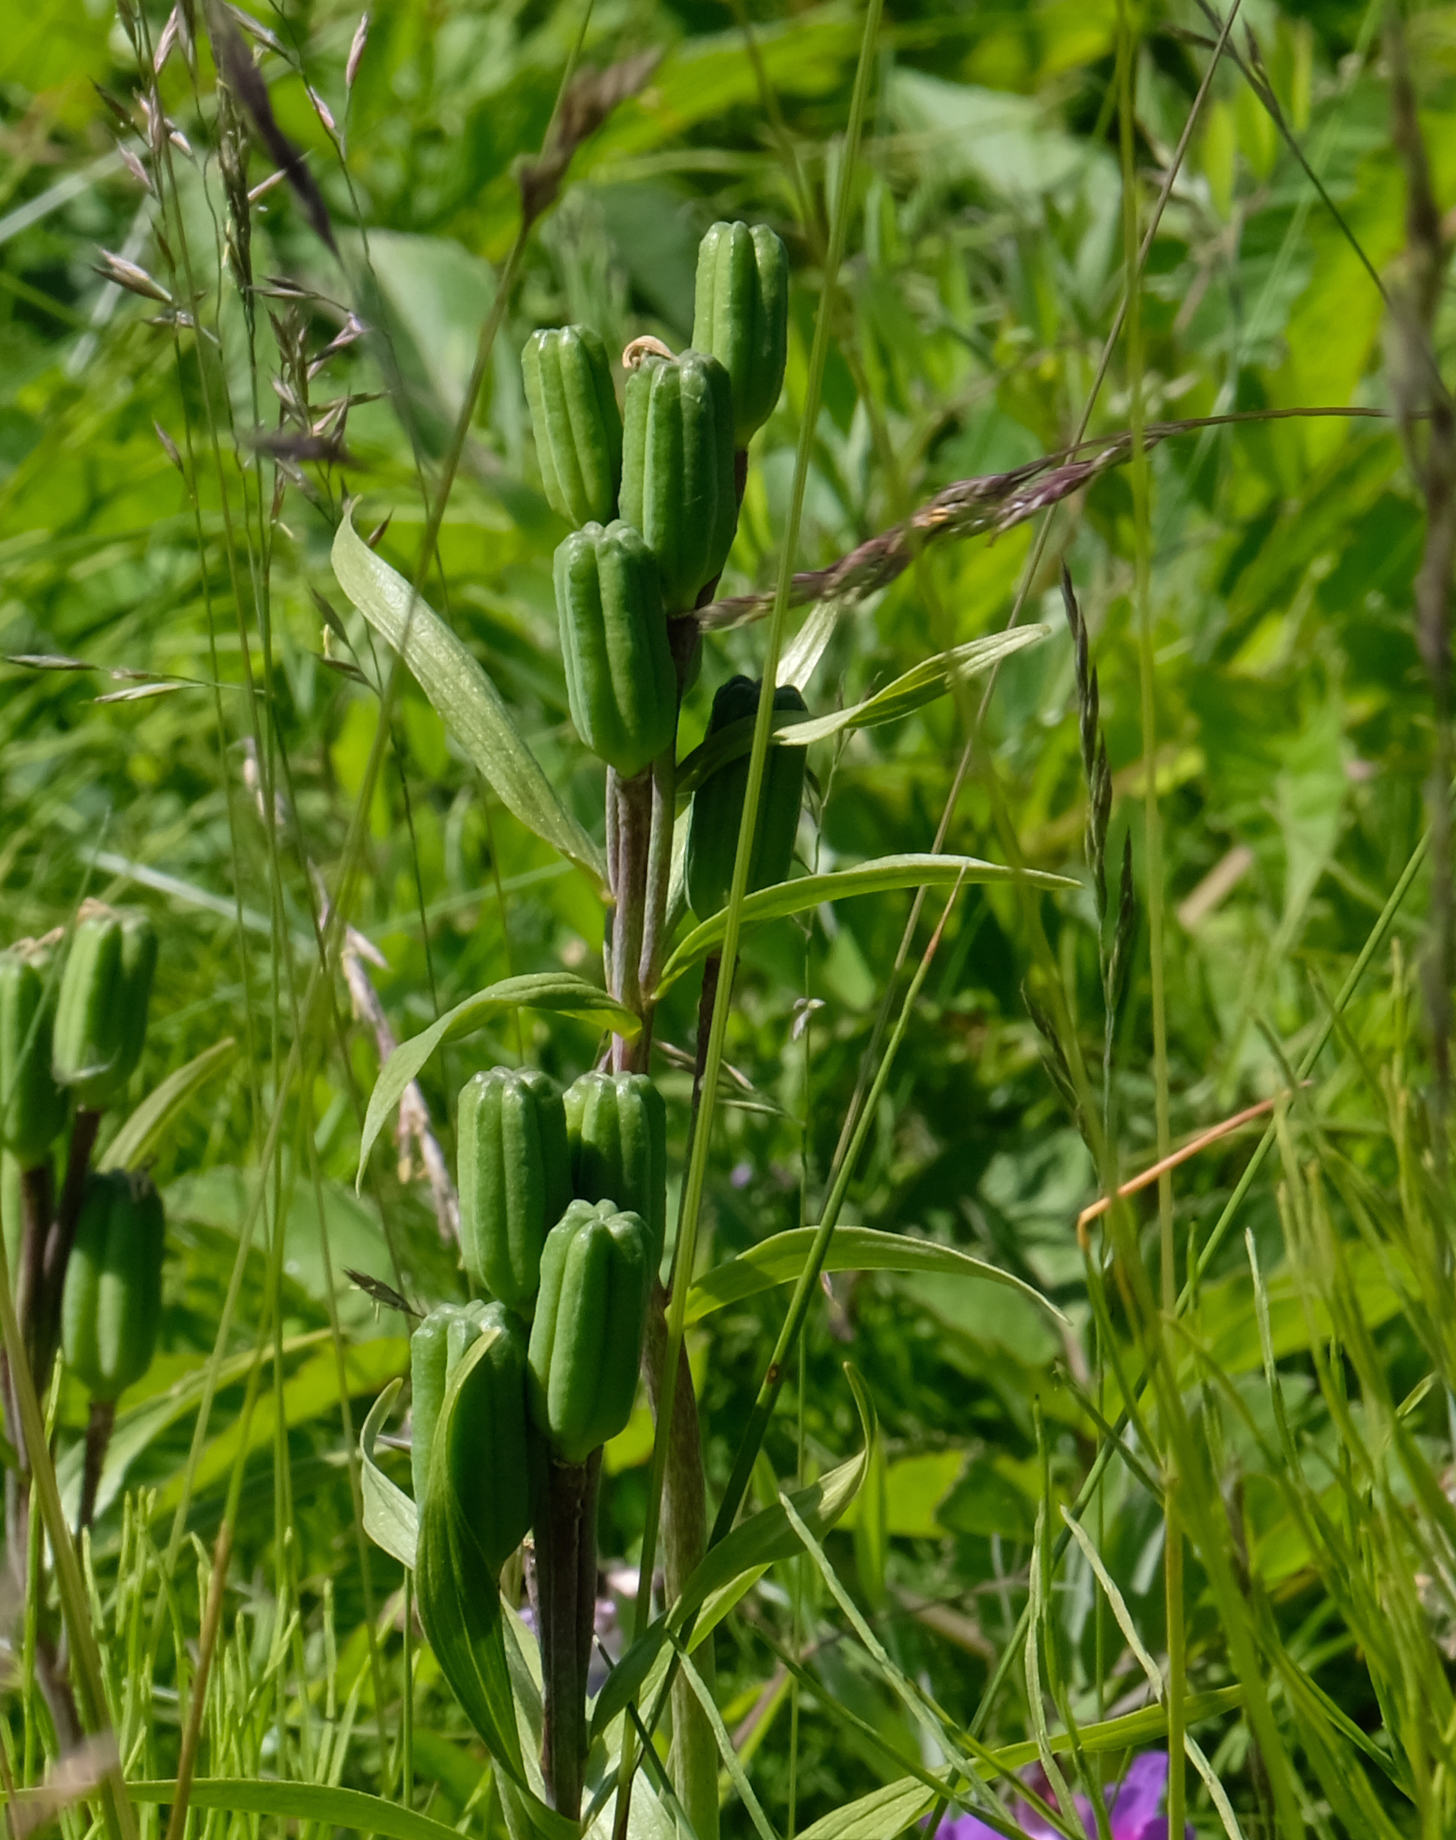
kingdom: Plantae
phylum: Tracheophyta
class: Liliopsida
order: Liliales
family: Liliaceae
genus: Fritillaria
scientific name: Fritillaria camschatcensis
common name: Kamchatka fritillary
